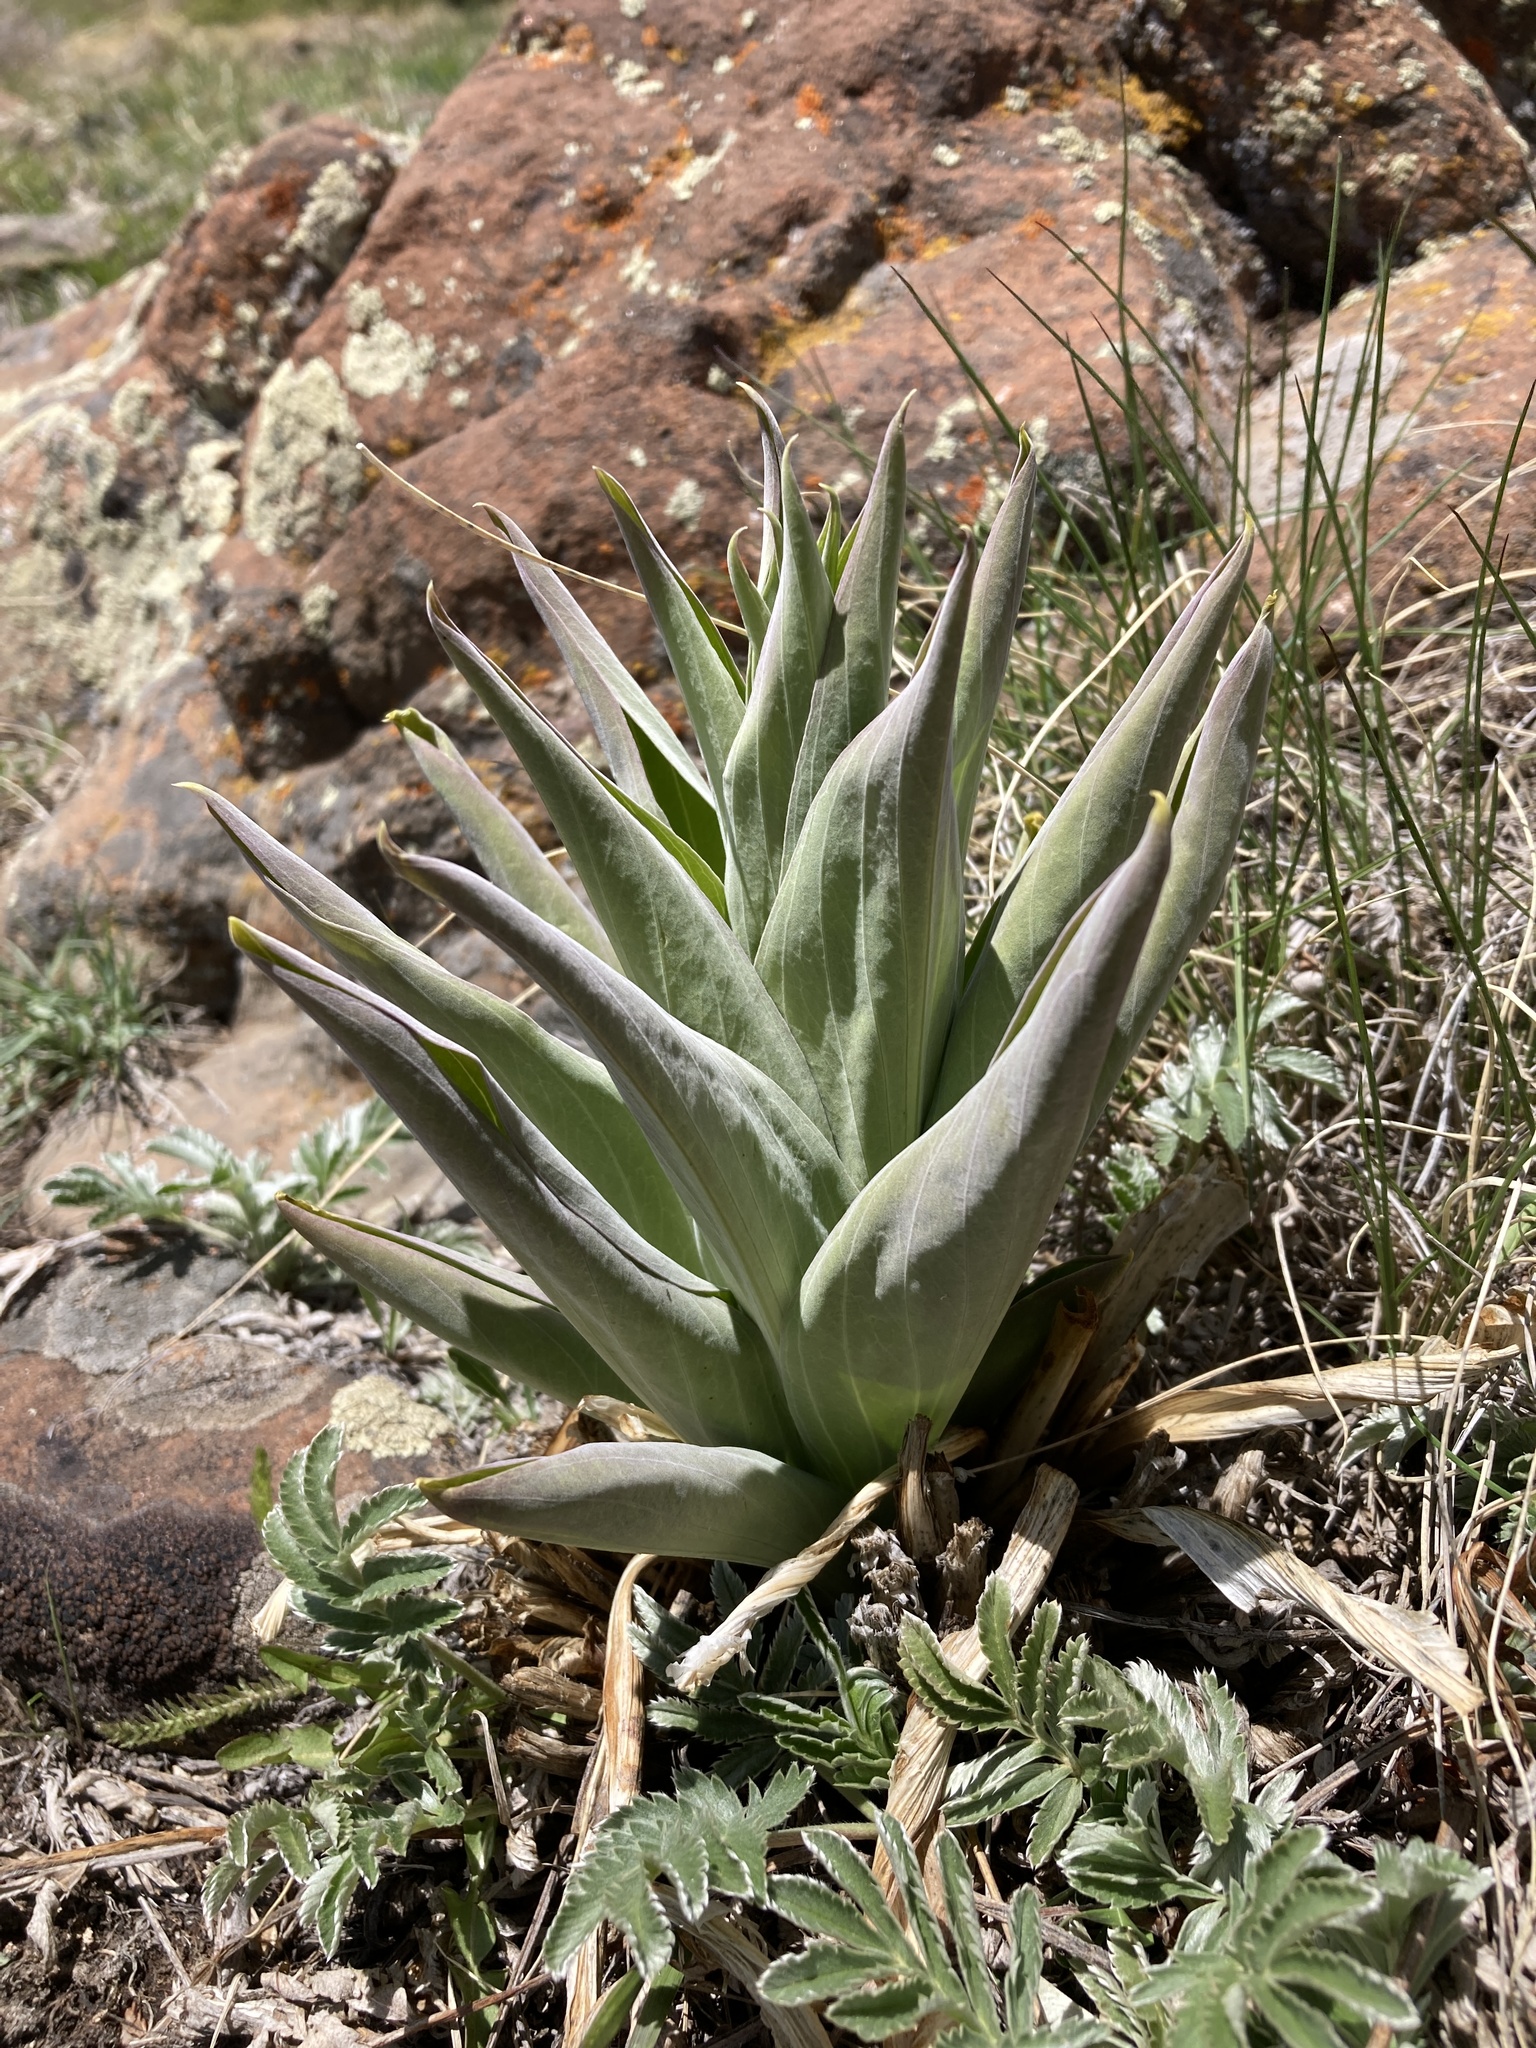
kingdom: Plantae
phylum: Tracheophyta
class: Magnoliopsida
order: Gentianales
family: Gentianaceae
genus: Frasera
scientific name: Frasera speciosa
